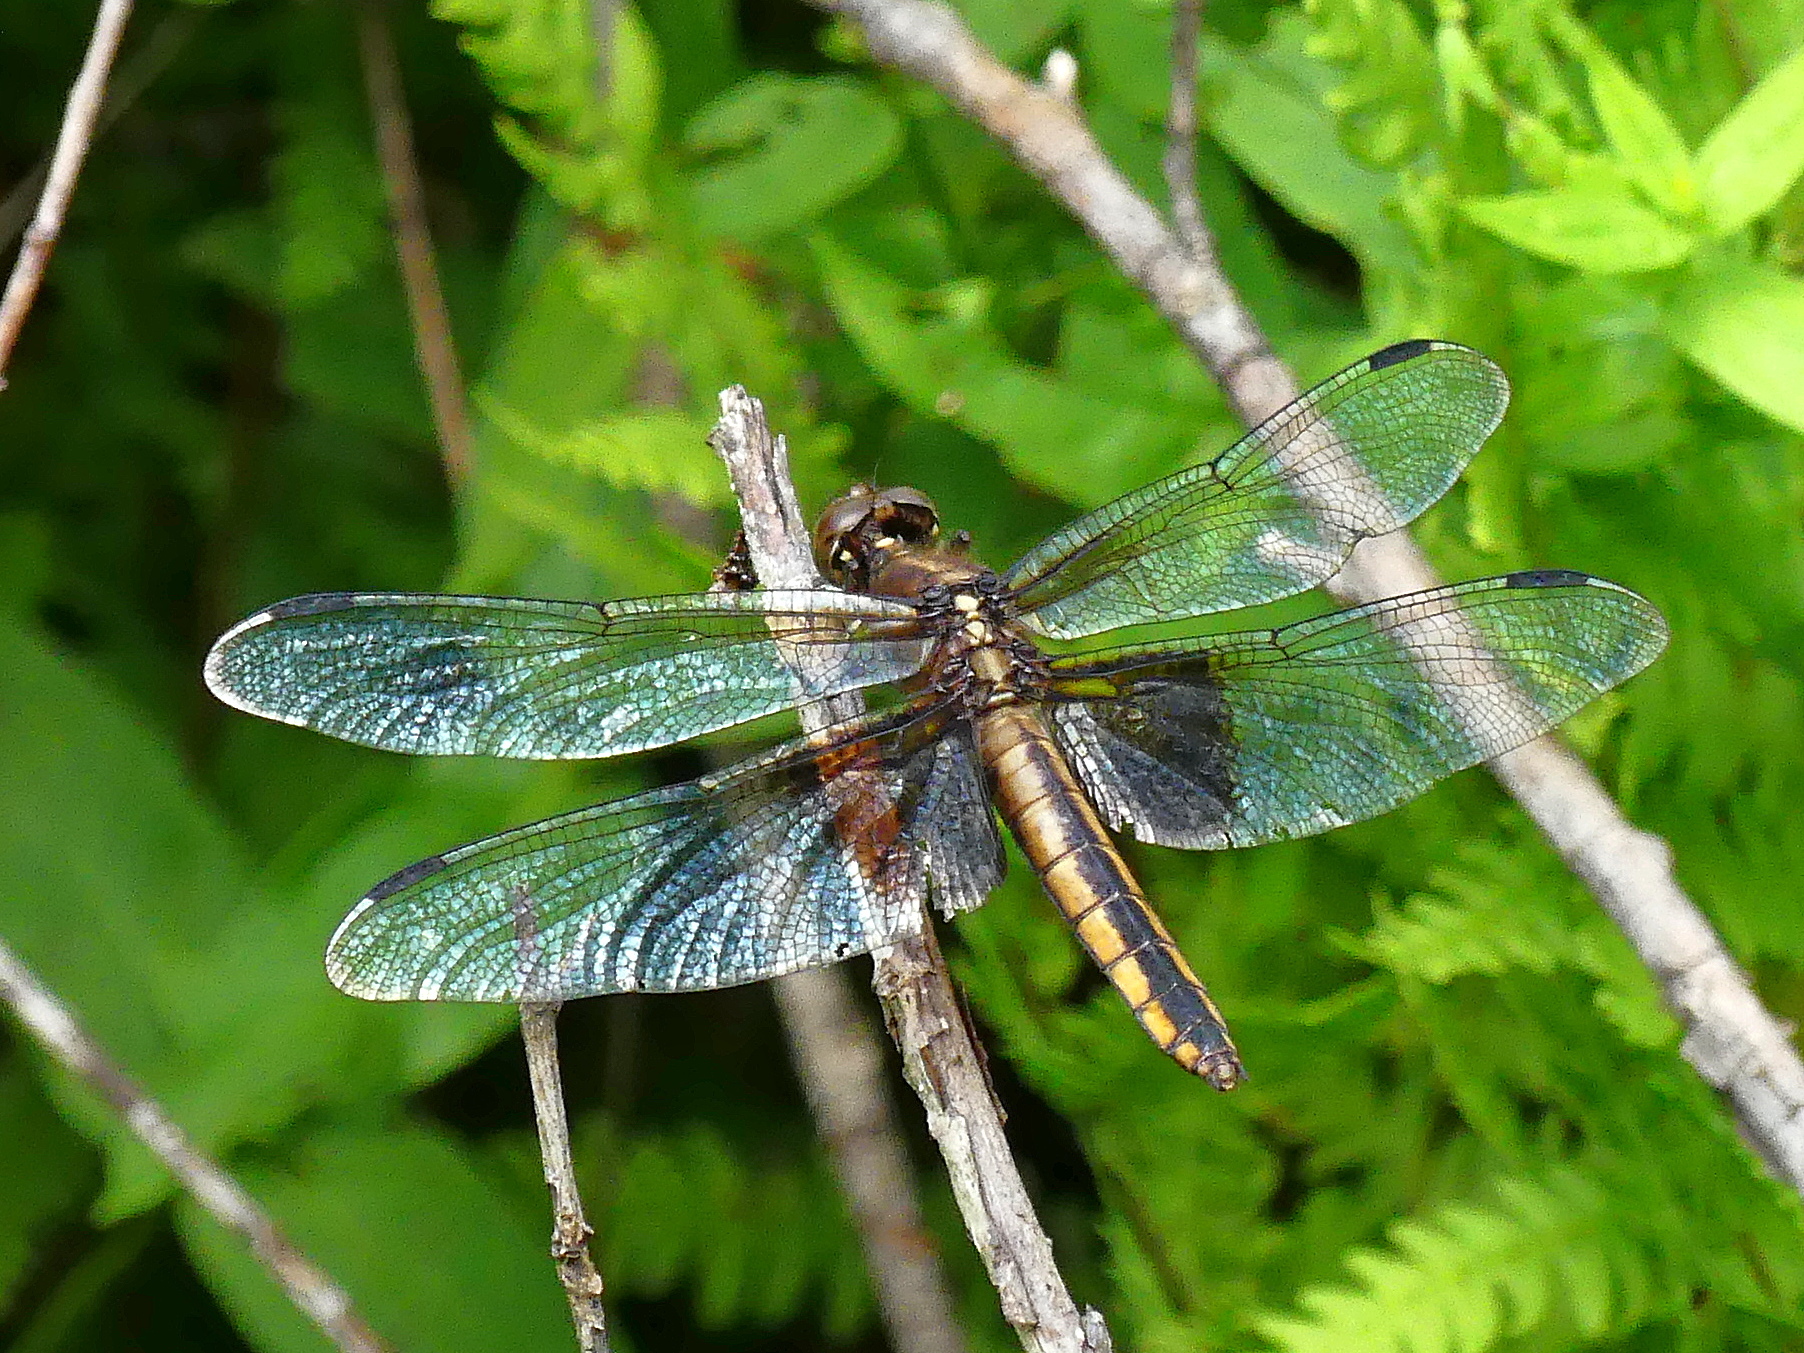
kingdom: Animalia
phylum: Arthropoda
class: Insecta
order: Odonata
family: Libellulidae
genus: Libellula
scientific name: Libellula luctuosa
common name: Widow skimmer
